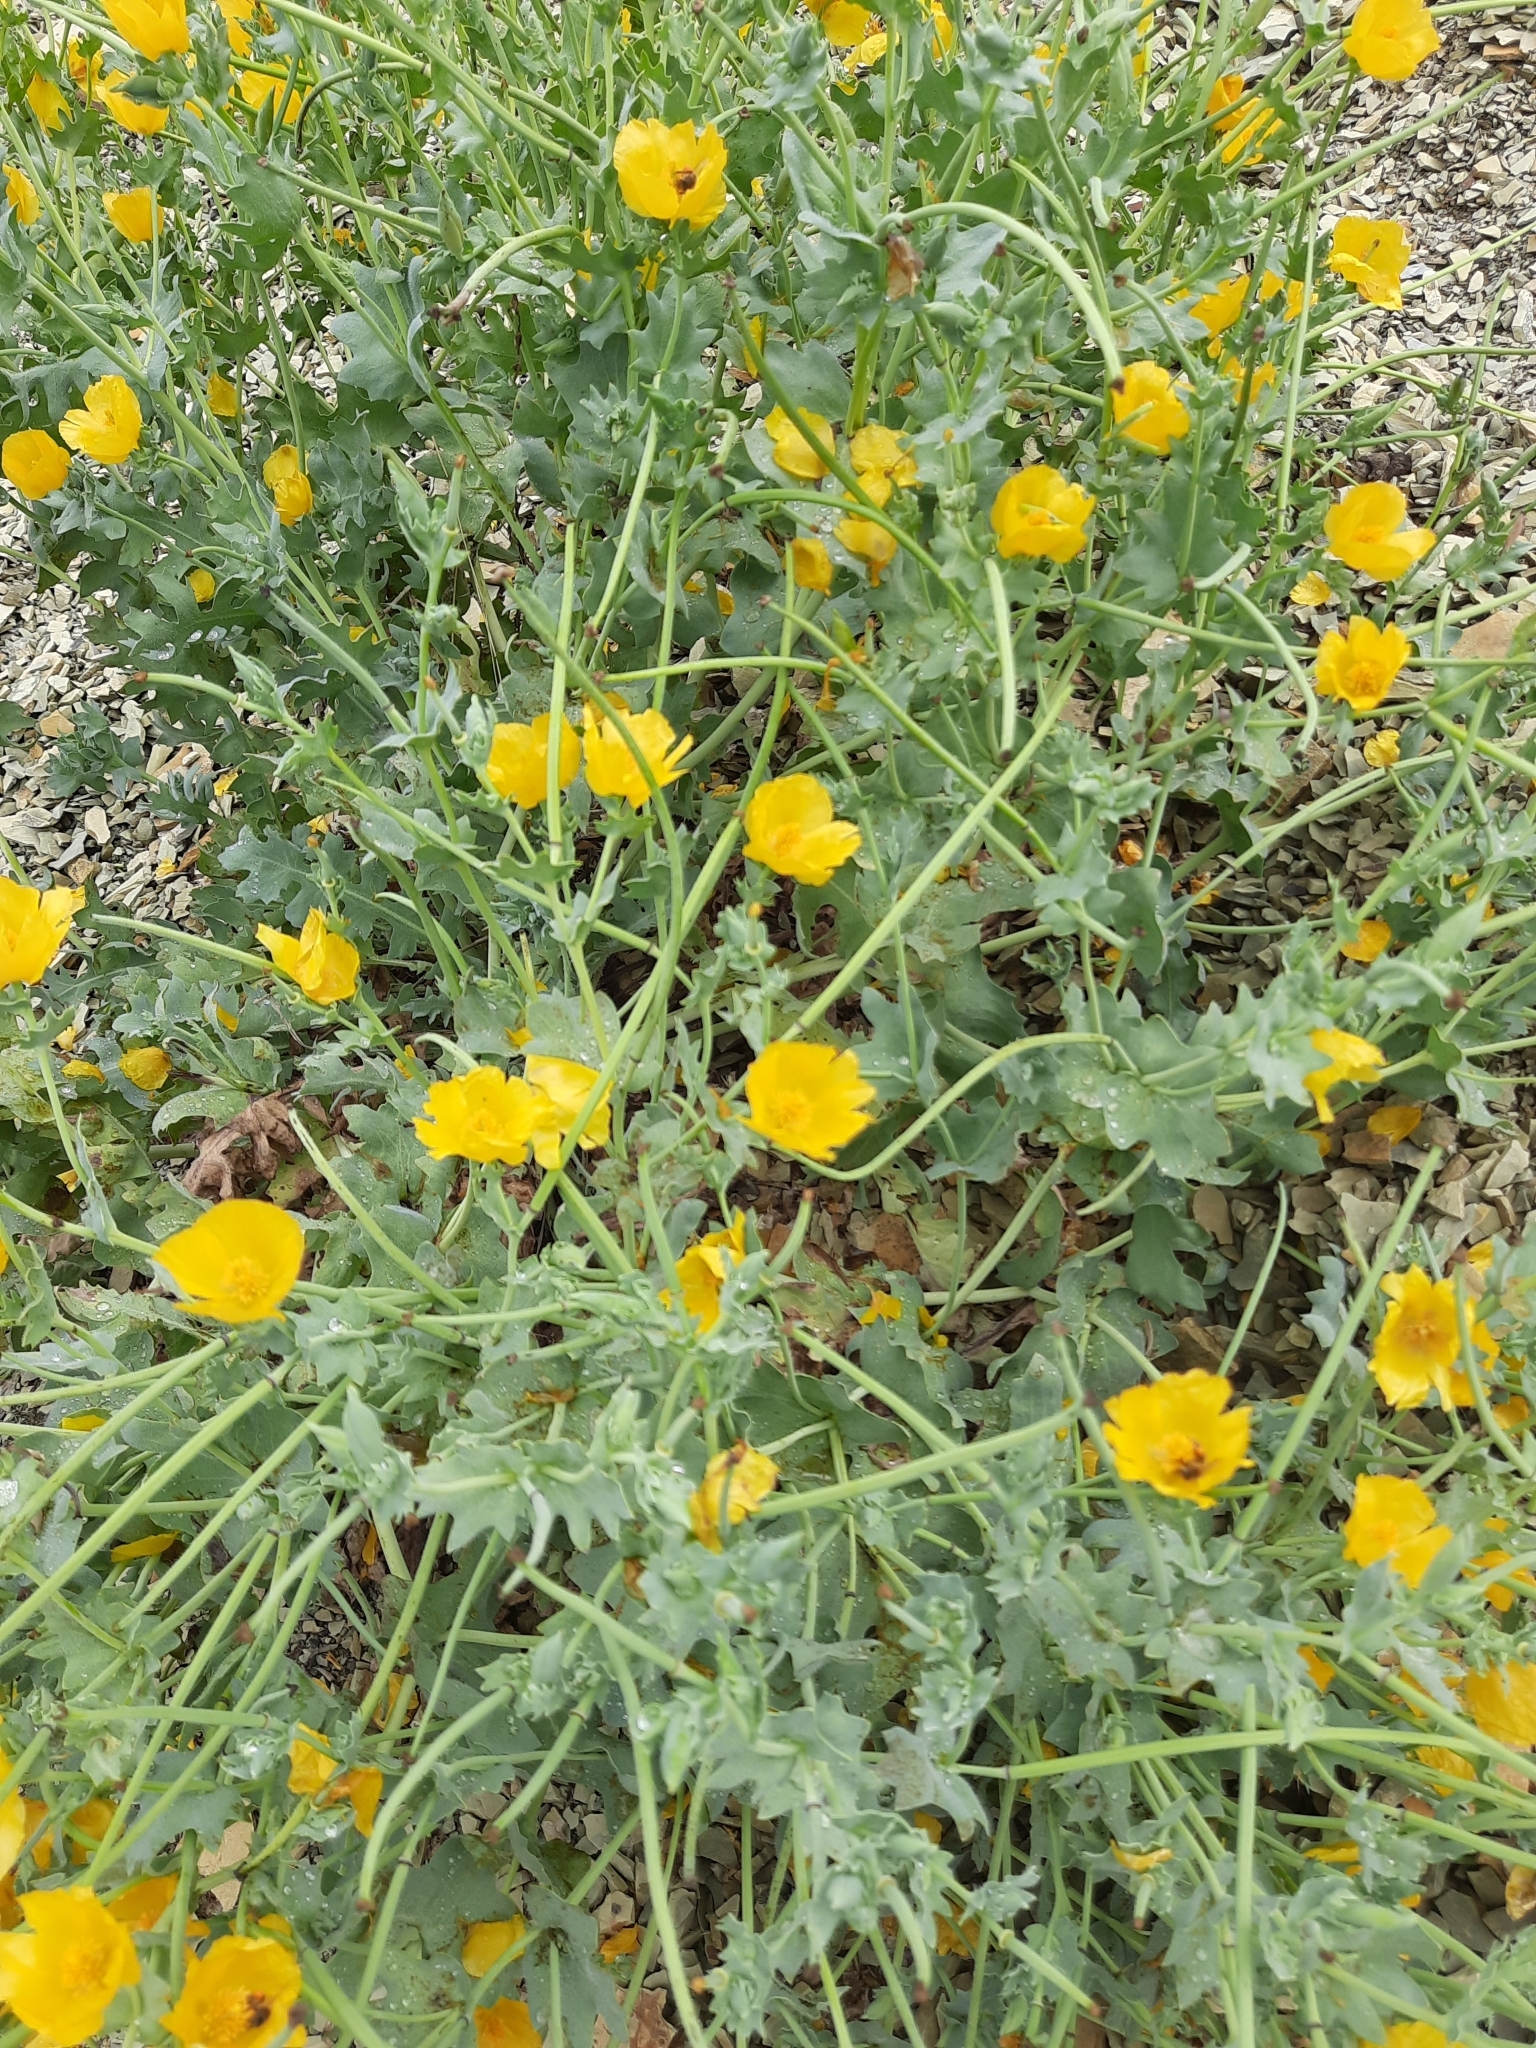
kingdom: Plantae
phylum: Tracheophyta
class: Magnoliopsida
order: Ranunculales
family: Papaveraceae
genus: Glaucium
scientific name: Glaucium flavum
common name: Yellow horned-poppy
